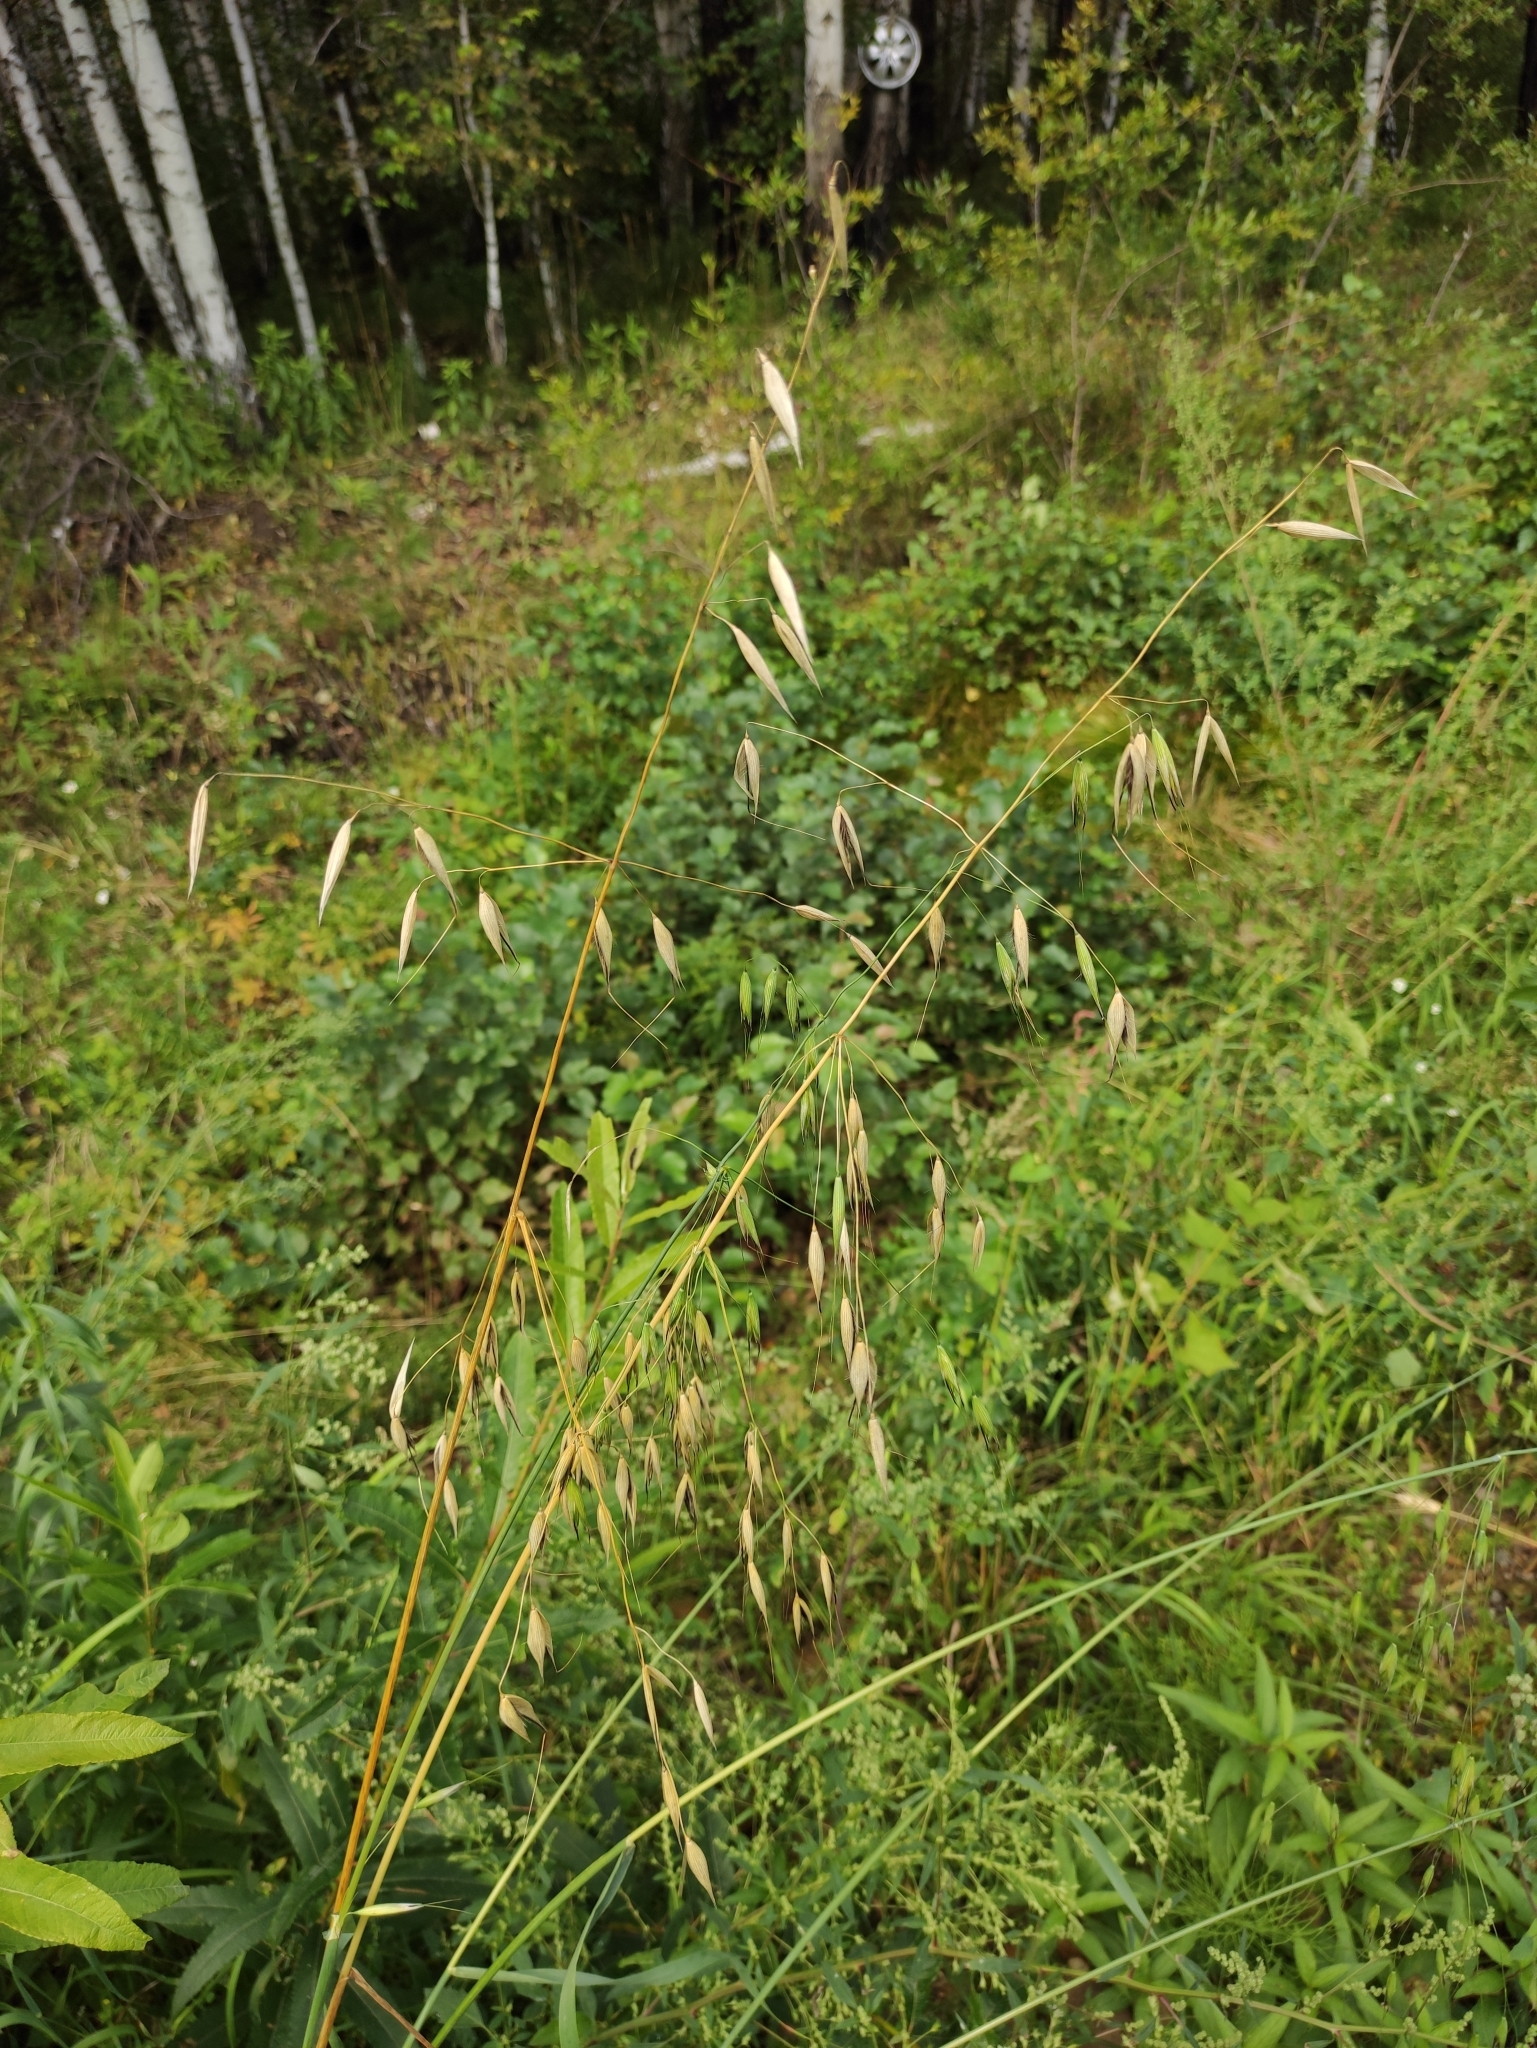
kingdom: Plantae
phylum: Tracheophyta
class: Liliopsida
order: Poales
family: Poaceae
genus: Avena
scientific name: Avena fatua
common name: Wild oat
